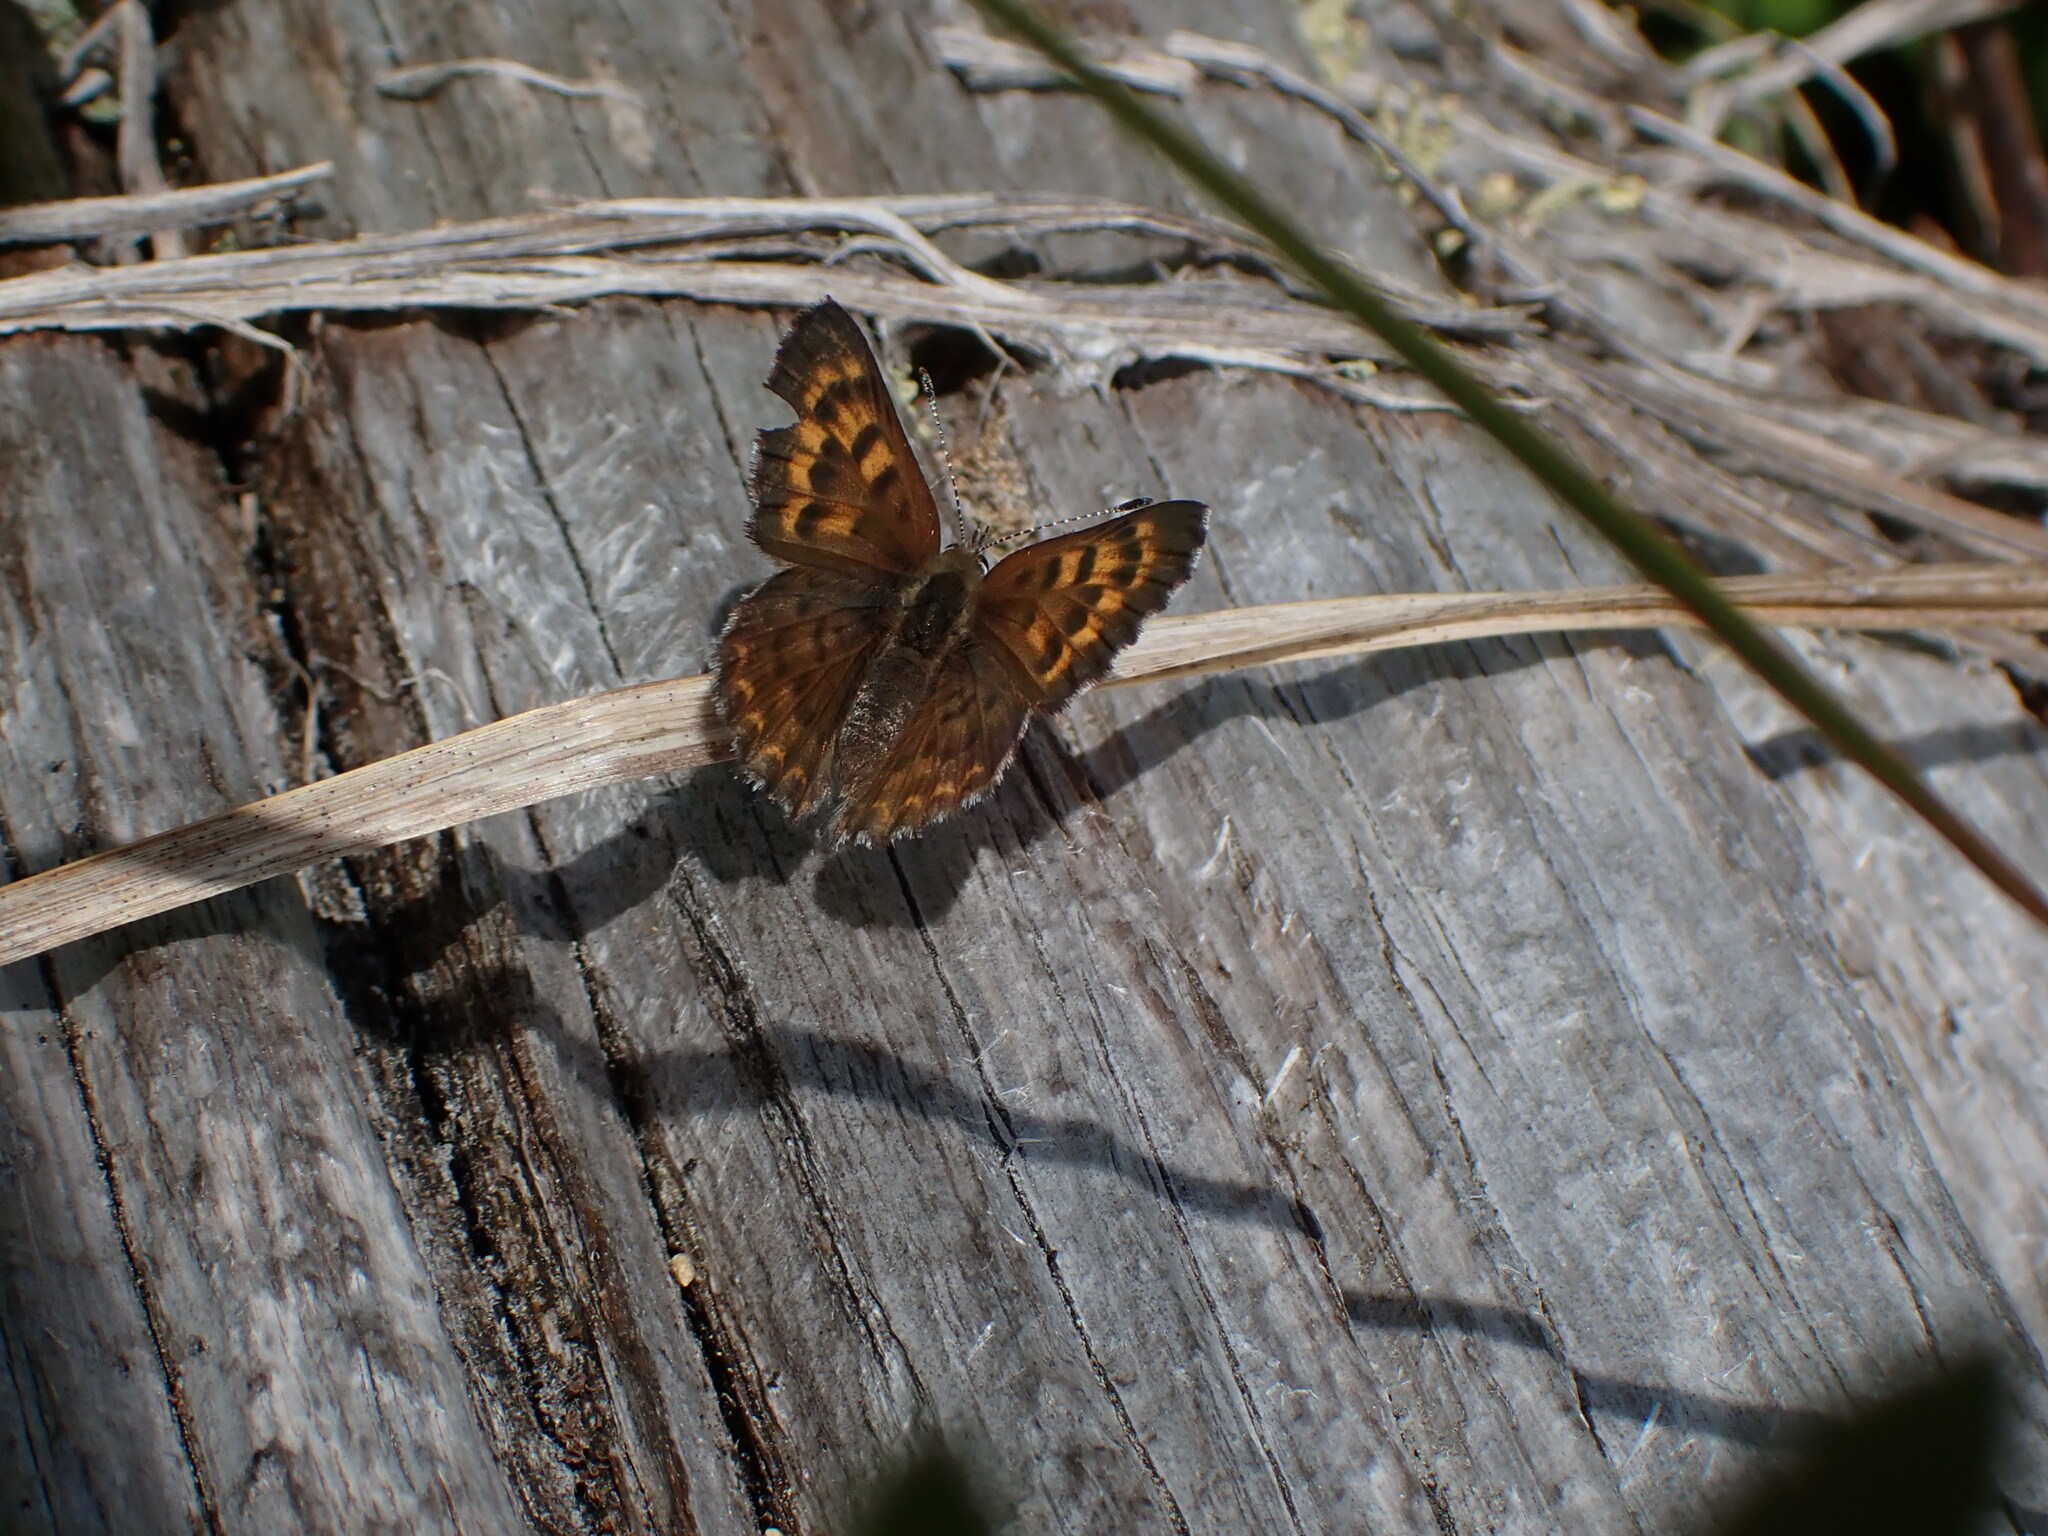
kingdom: Animalia
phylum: Arthropoda
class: Insecta
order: Lepidoptera
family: Lycaenidae
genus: Tharsalea
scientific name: Tharsalea mariposa
